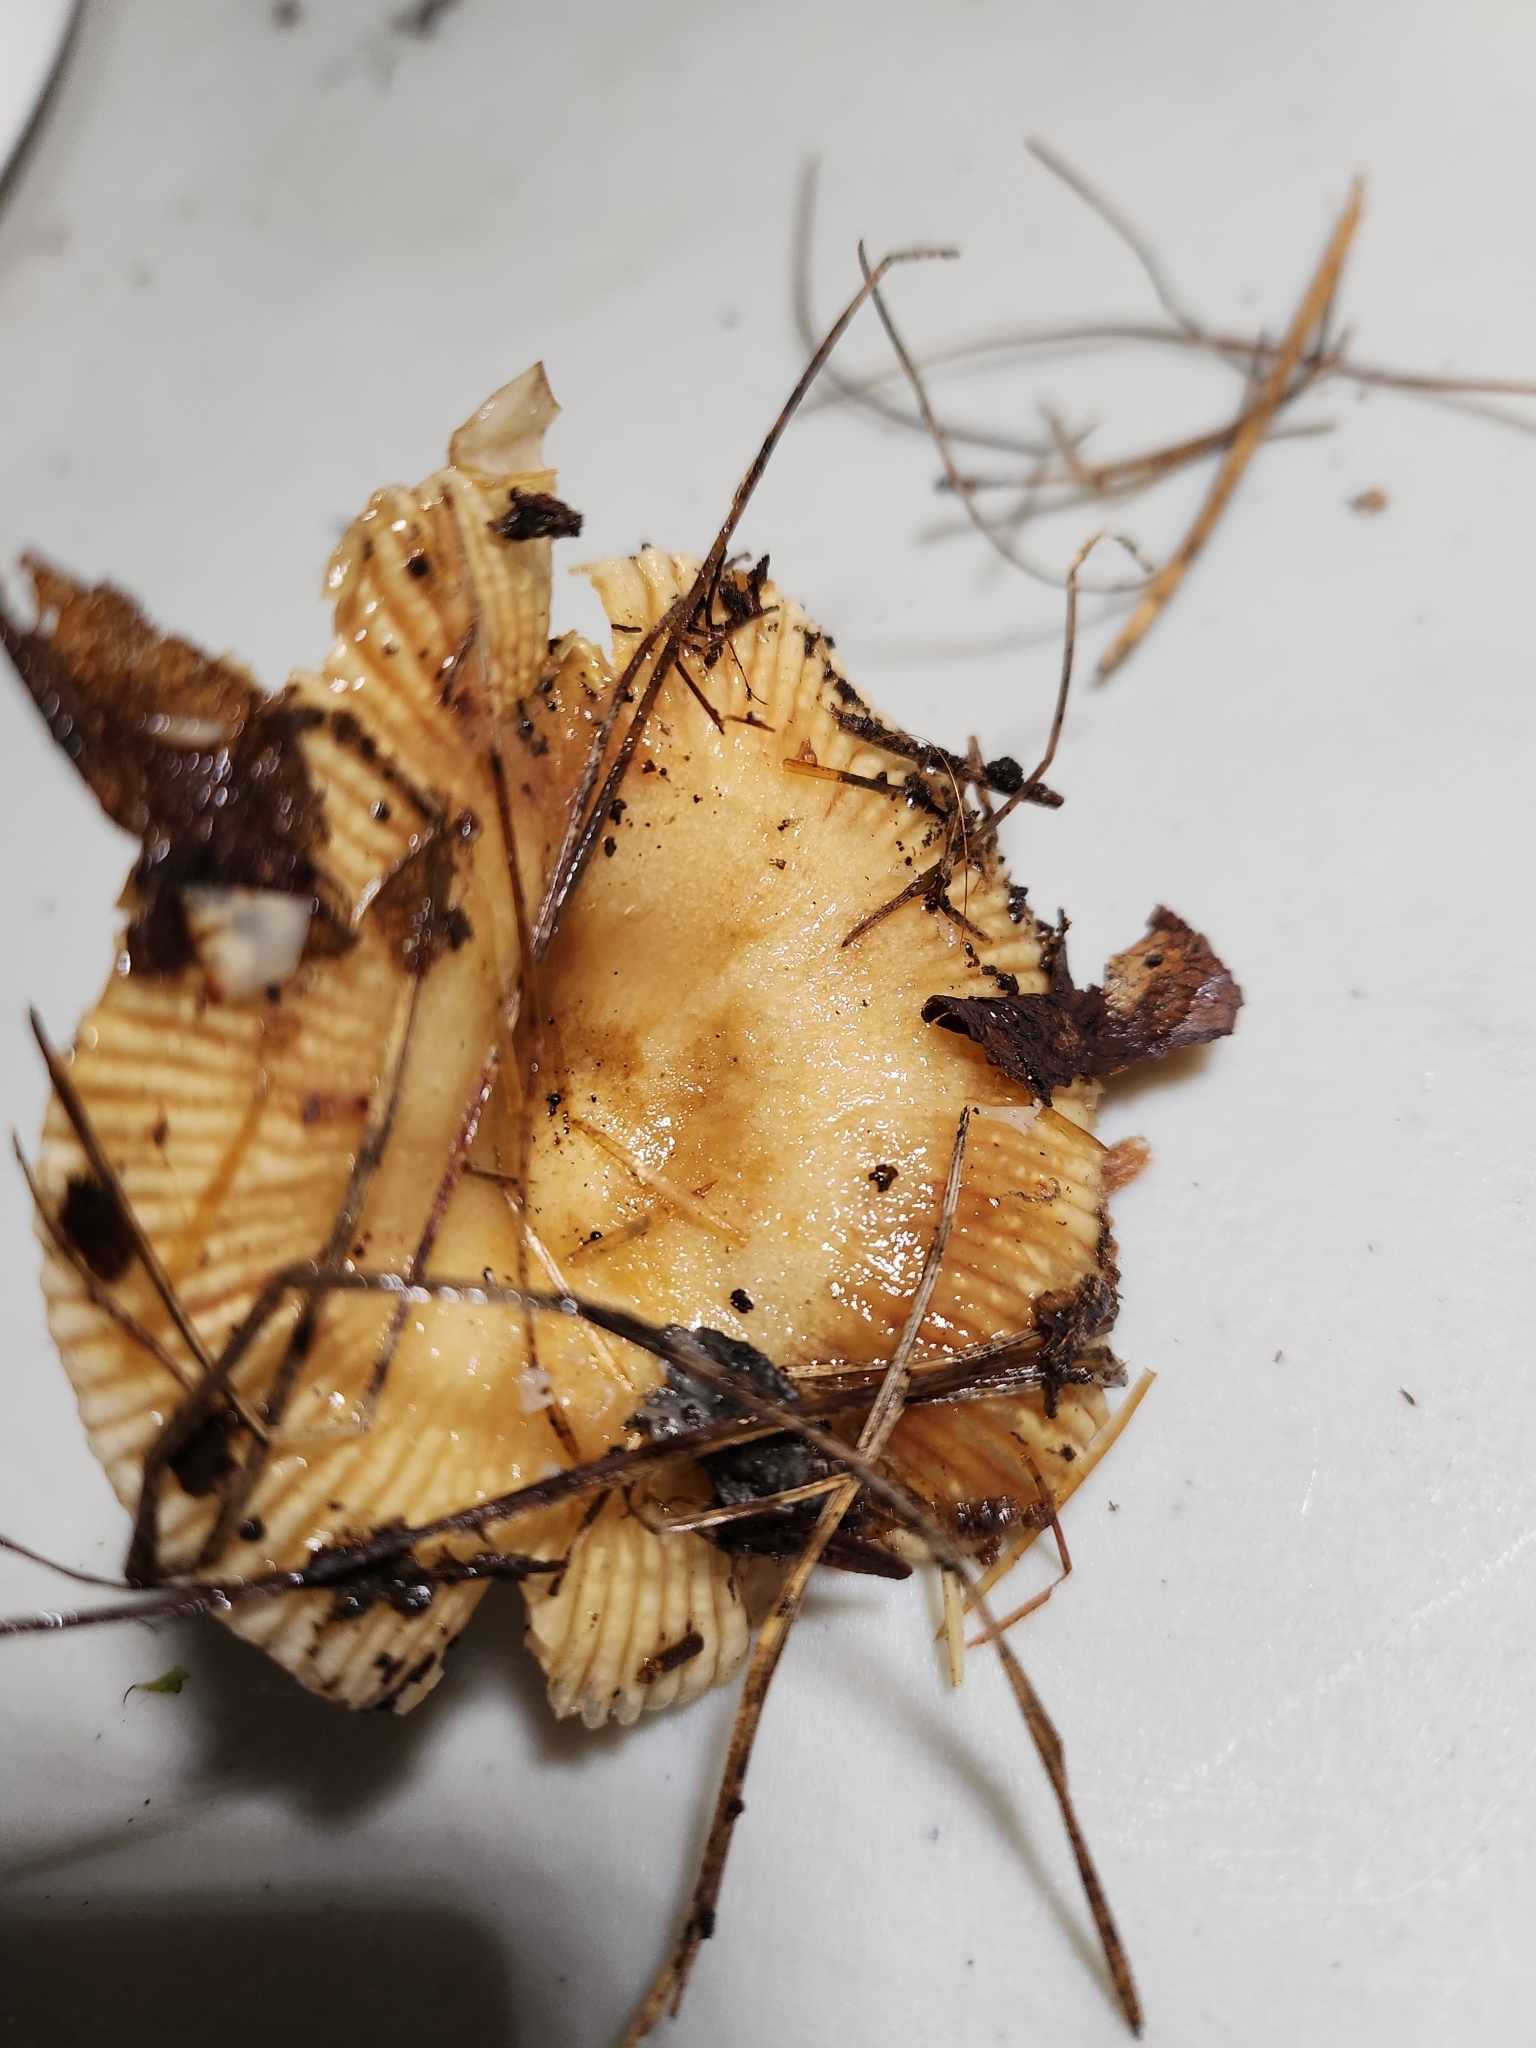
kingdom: Fungi
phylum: Basidiomycota
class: Agaricomycetes
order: Russulales
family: Russulaceae
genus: Russula
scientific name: Russula amerorecondita
